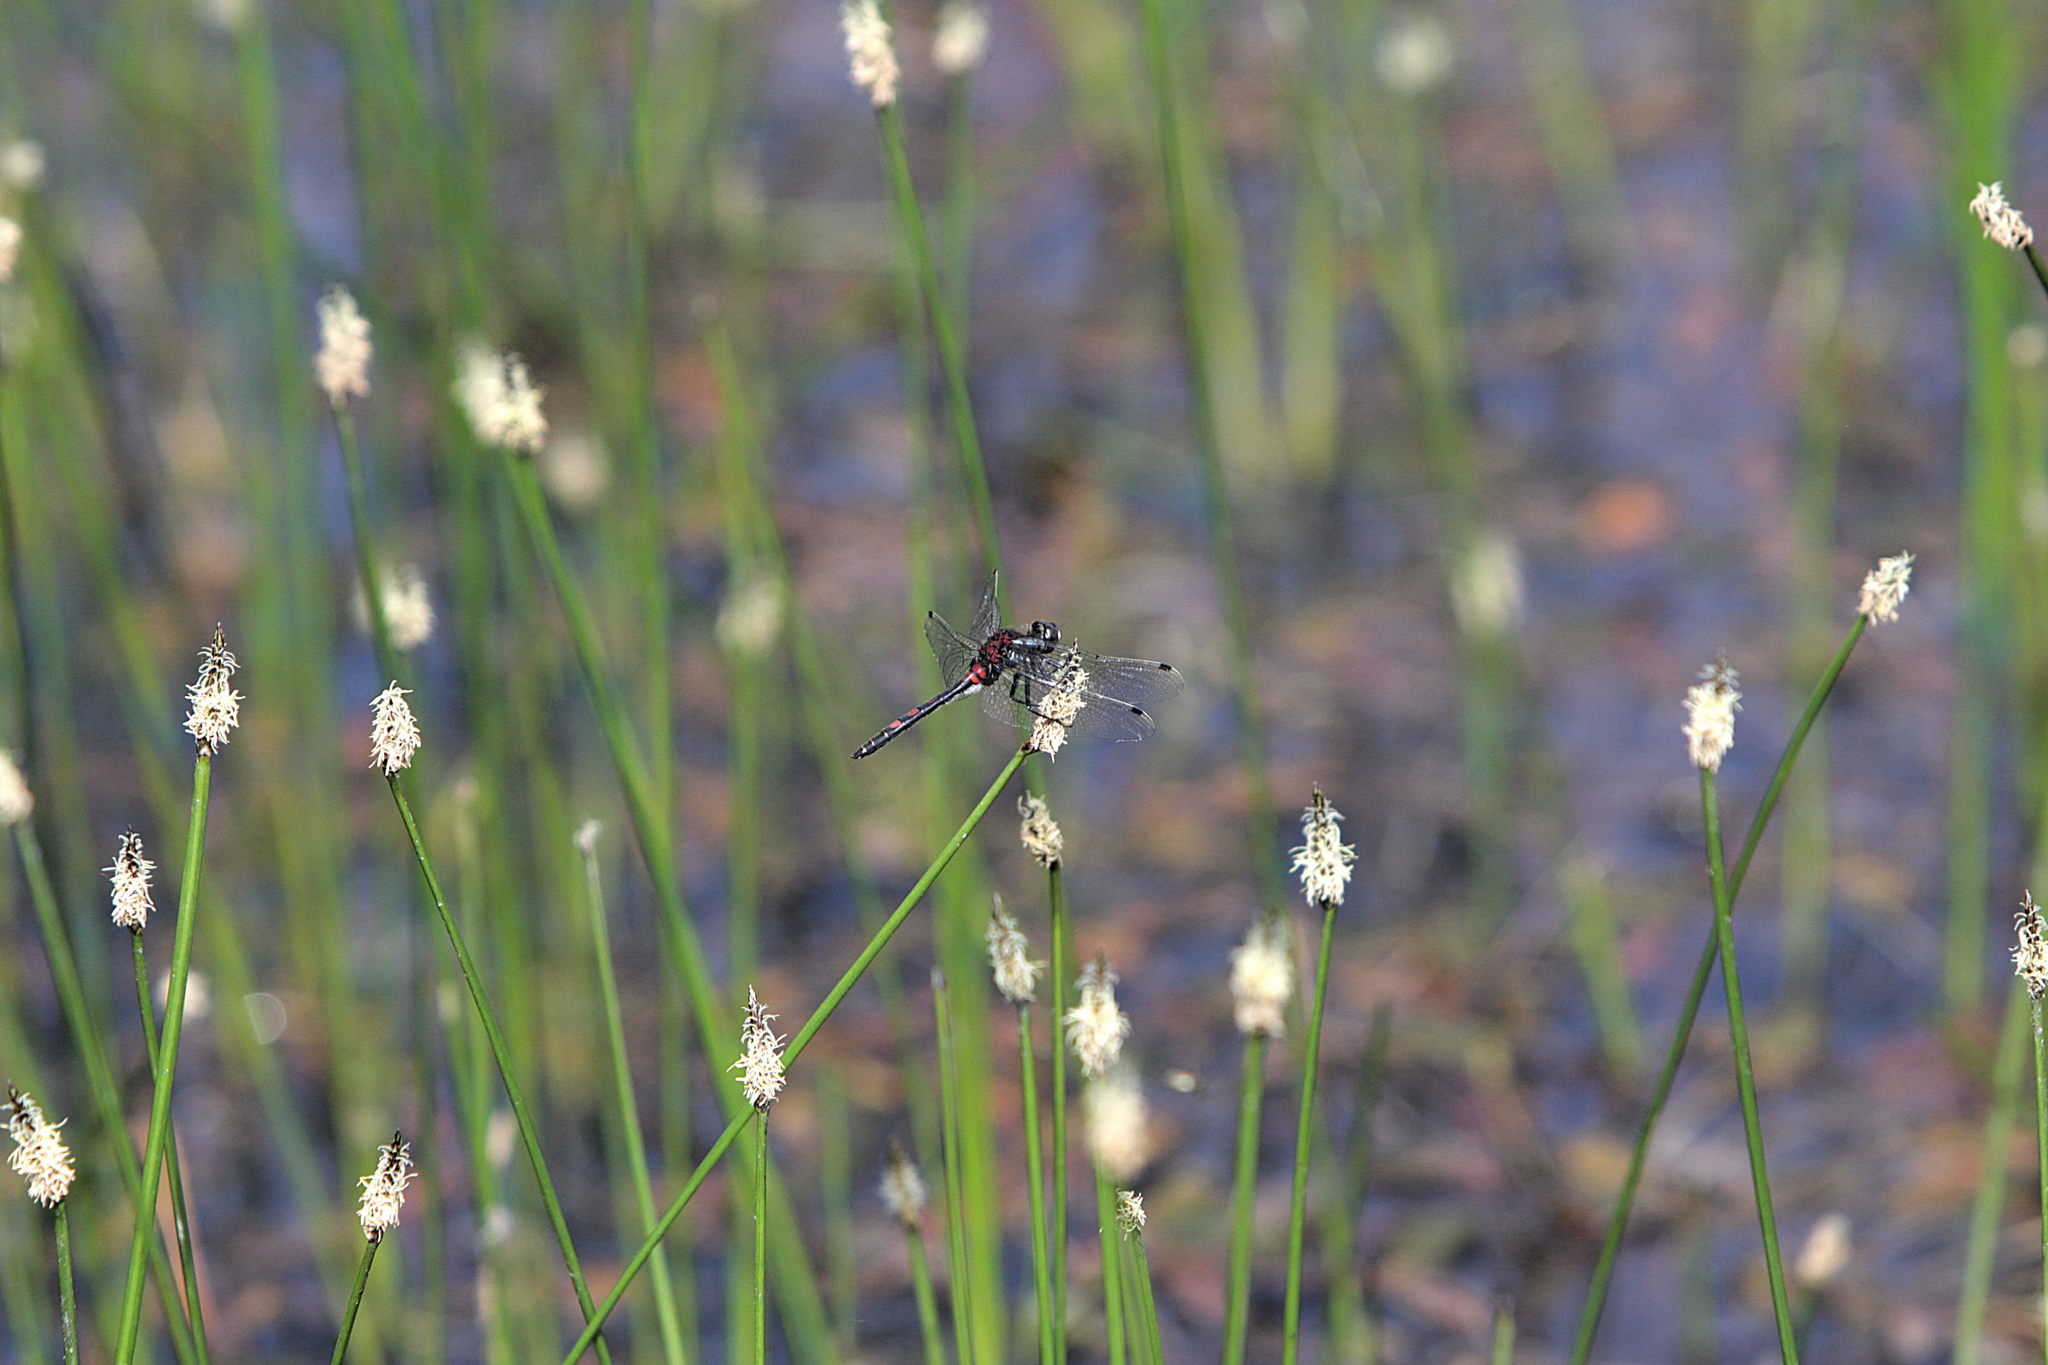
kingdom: Animalia
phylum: Arthropoda
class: Insecta
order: Odonata
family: Libellulidae
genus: Leucorrhinia
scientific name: Leucorrhinia dubia
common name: White-faced darter
